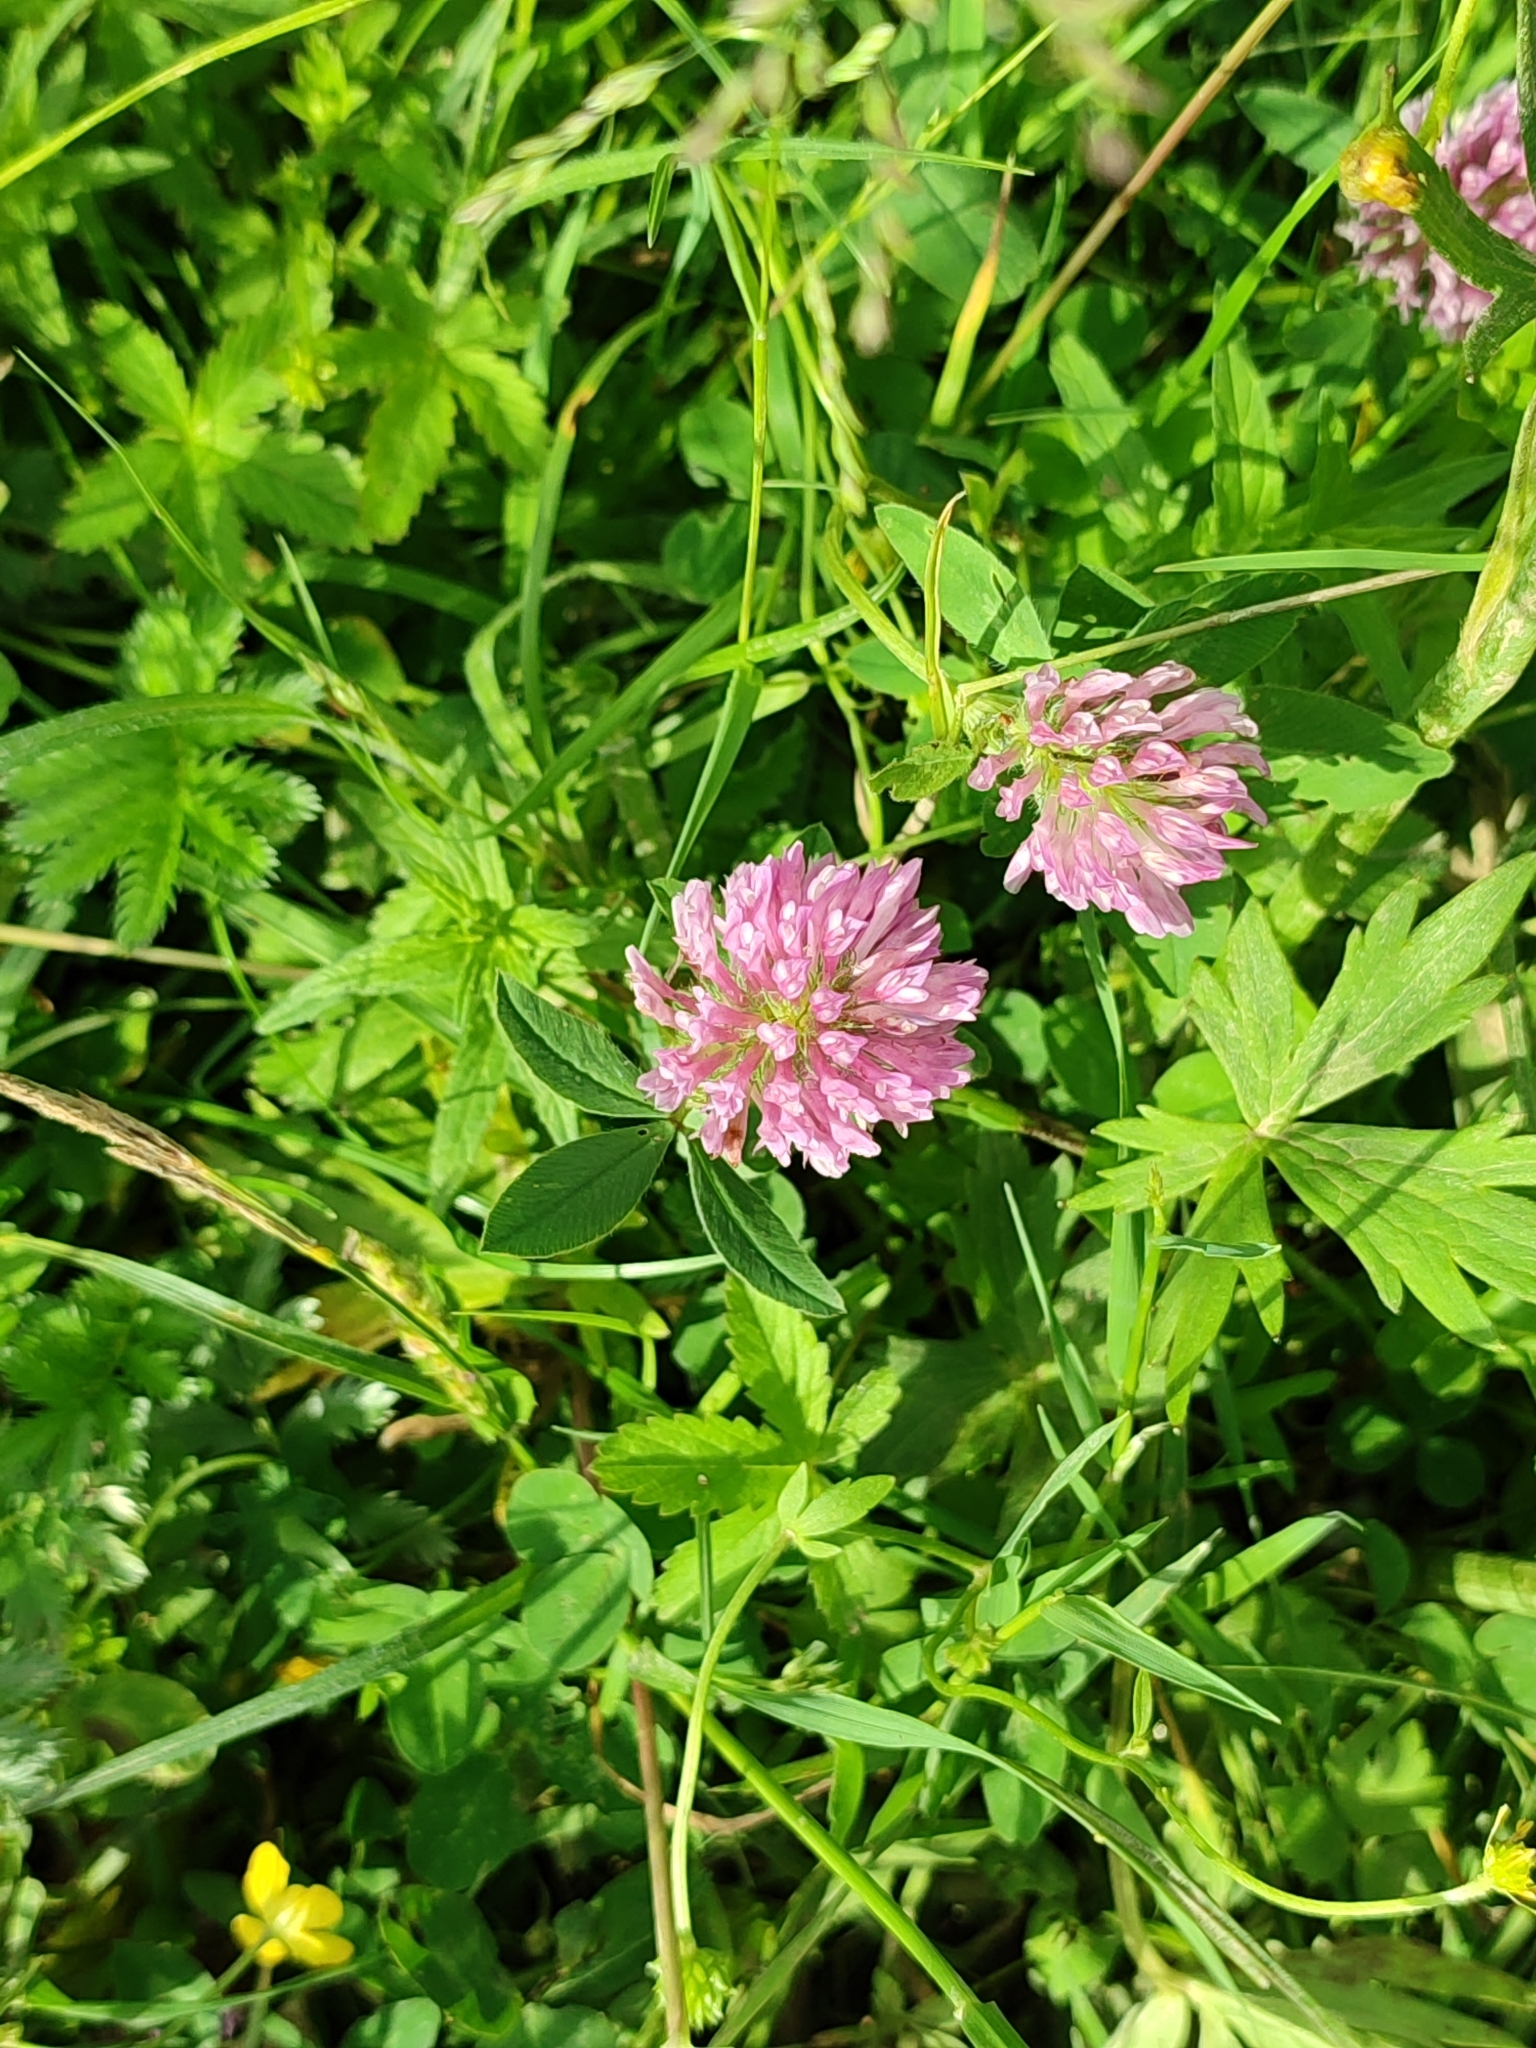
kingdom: Plantae
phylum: Tracheophyta
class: Magnoliopsida
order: Fabales
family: Fabaceae
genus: Trifolium
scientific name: Trifolium pratense
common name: Red clover
